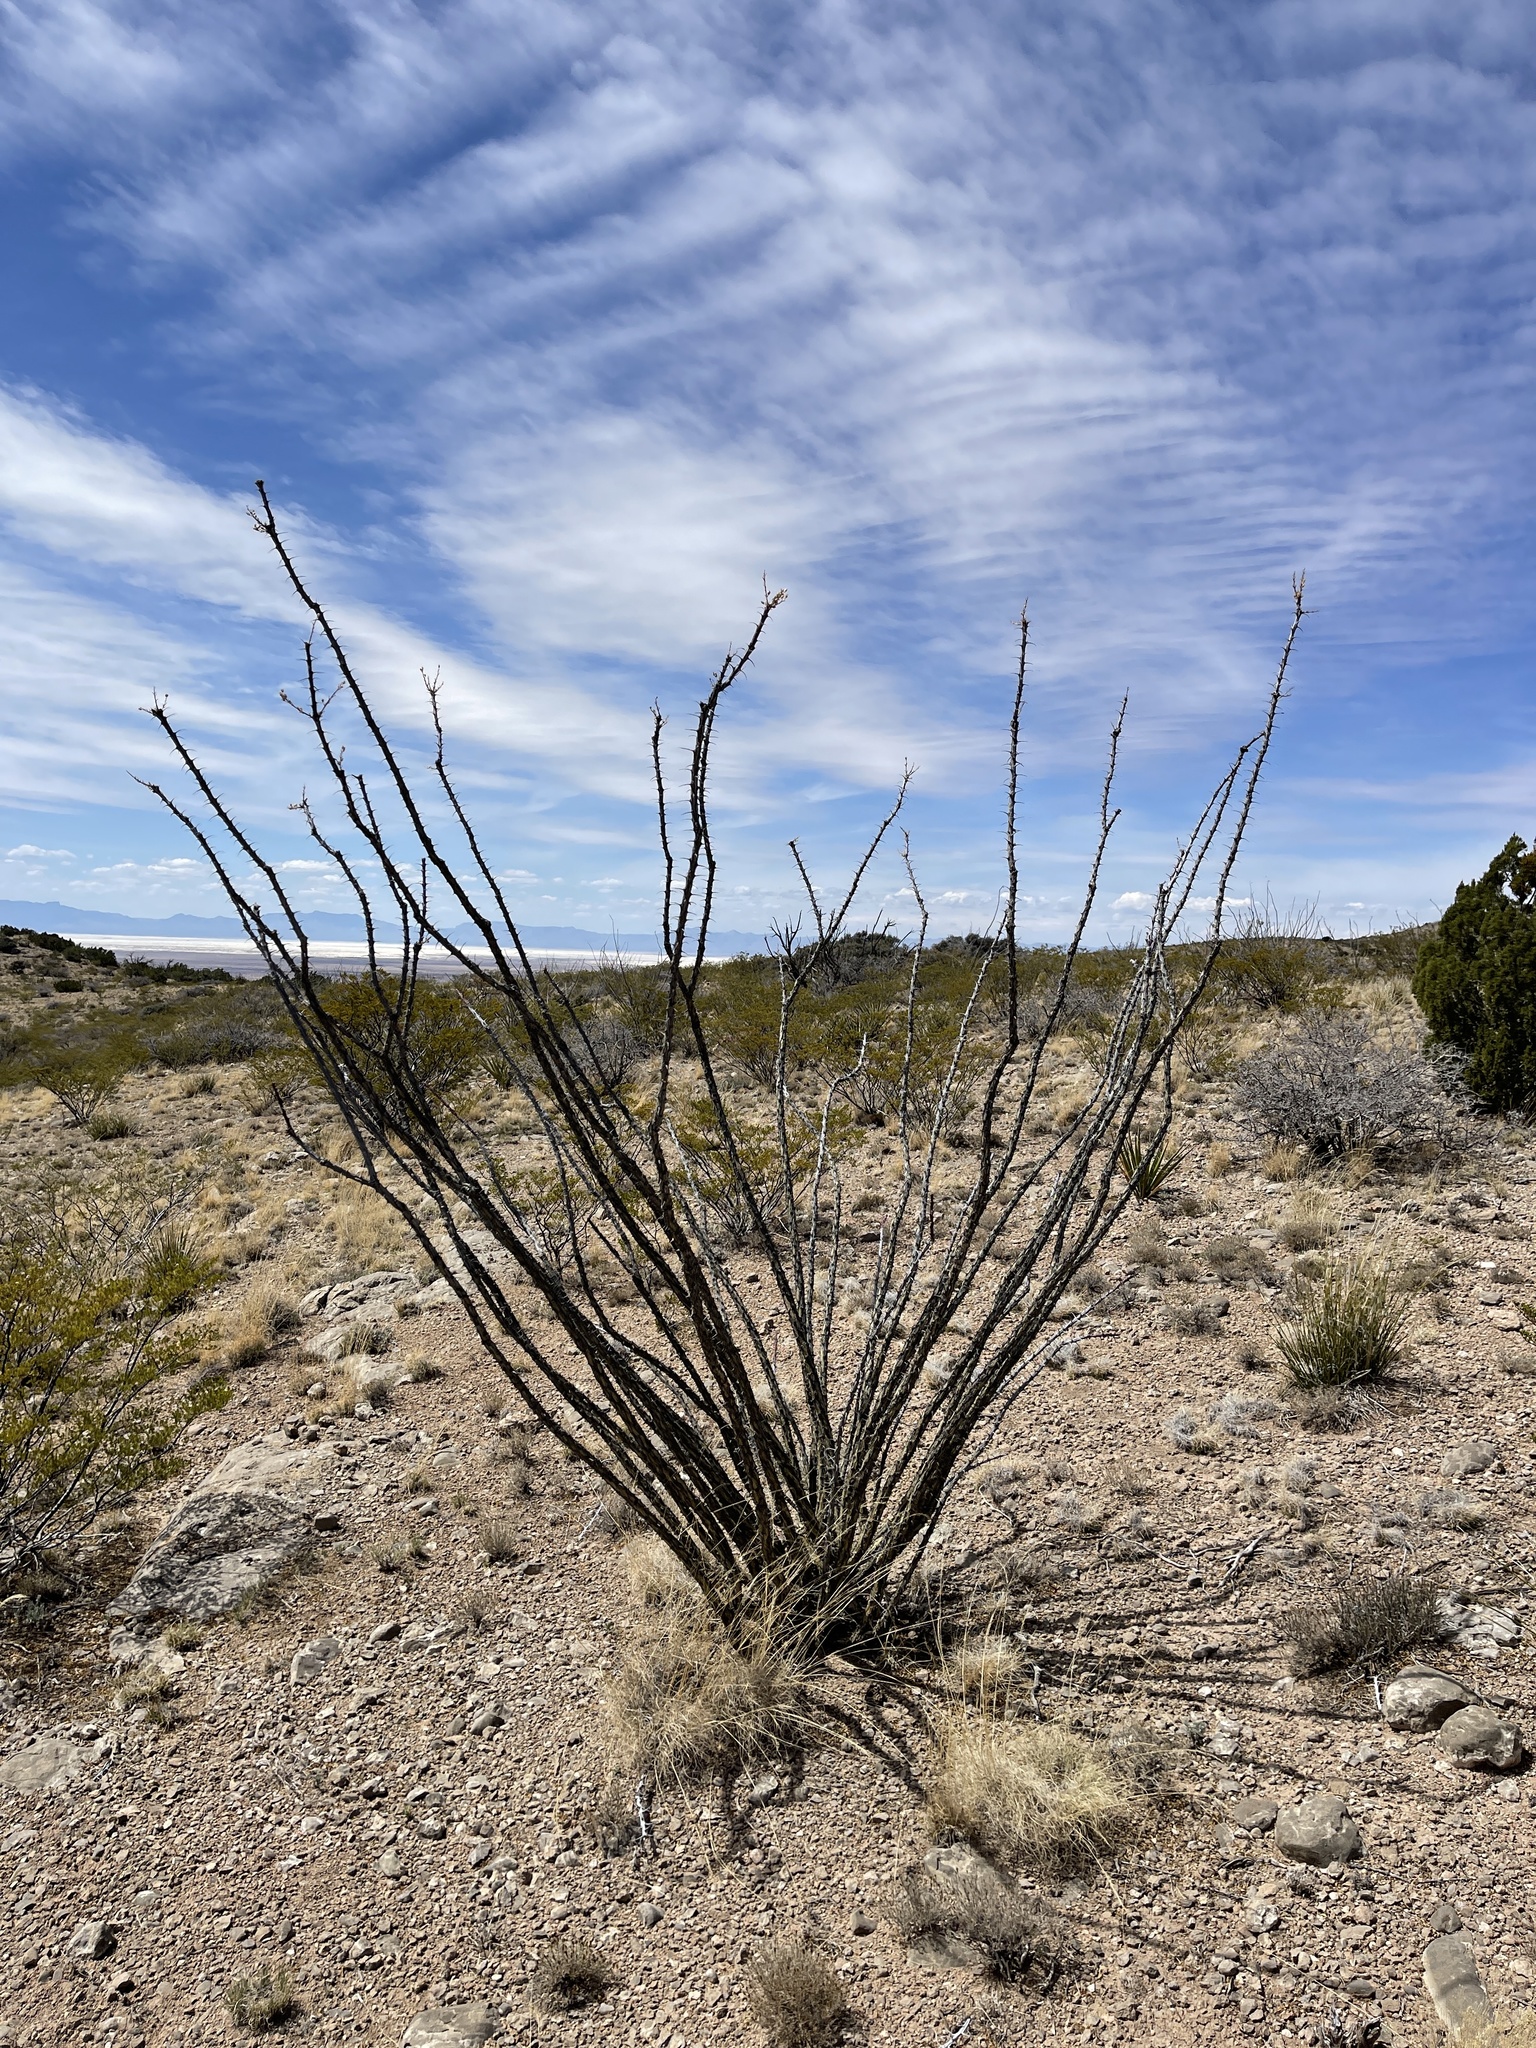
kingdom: Plantae
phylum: Tracheophyta
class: Magnoliopsida
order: Ericales
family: Fouquieriaceae
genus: Fouquieria
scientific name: Fouquieria splendens
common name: Vine-cactus
